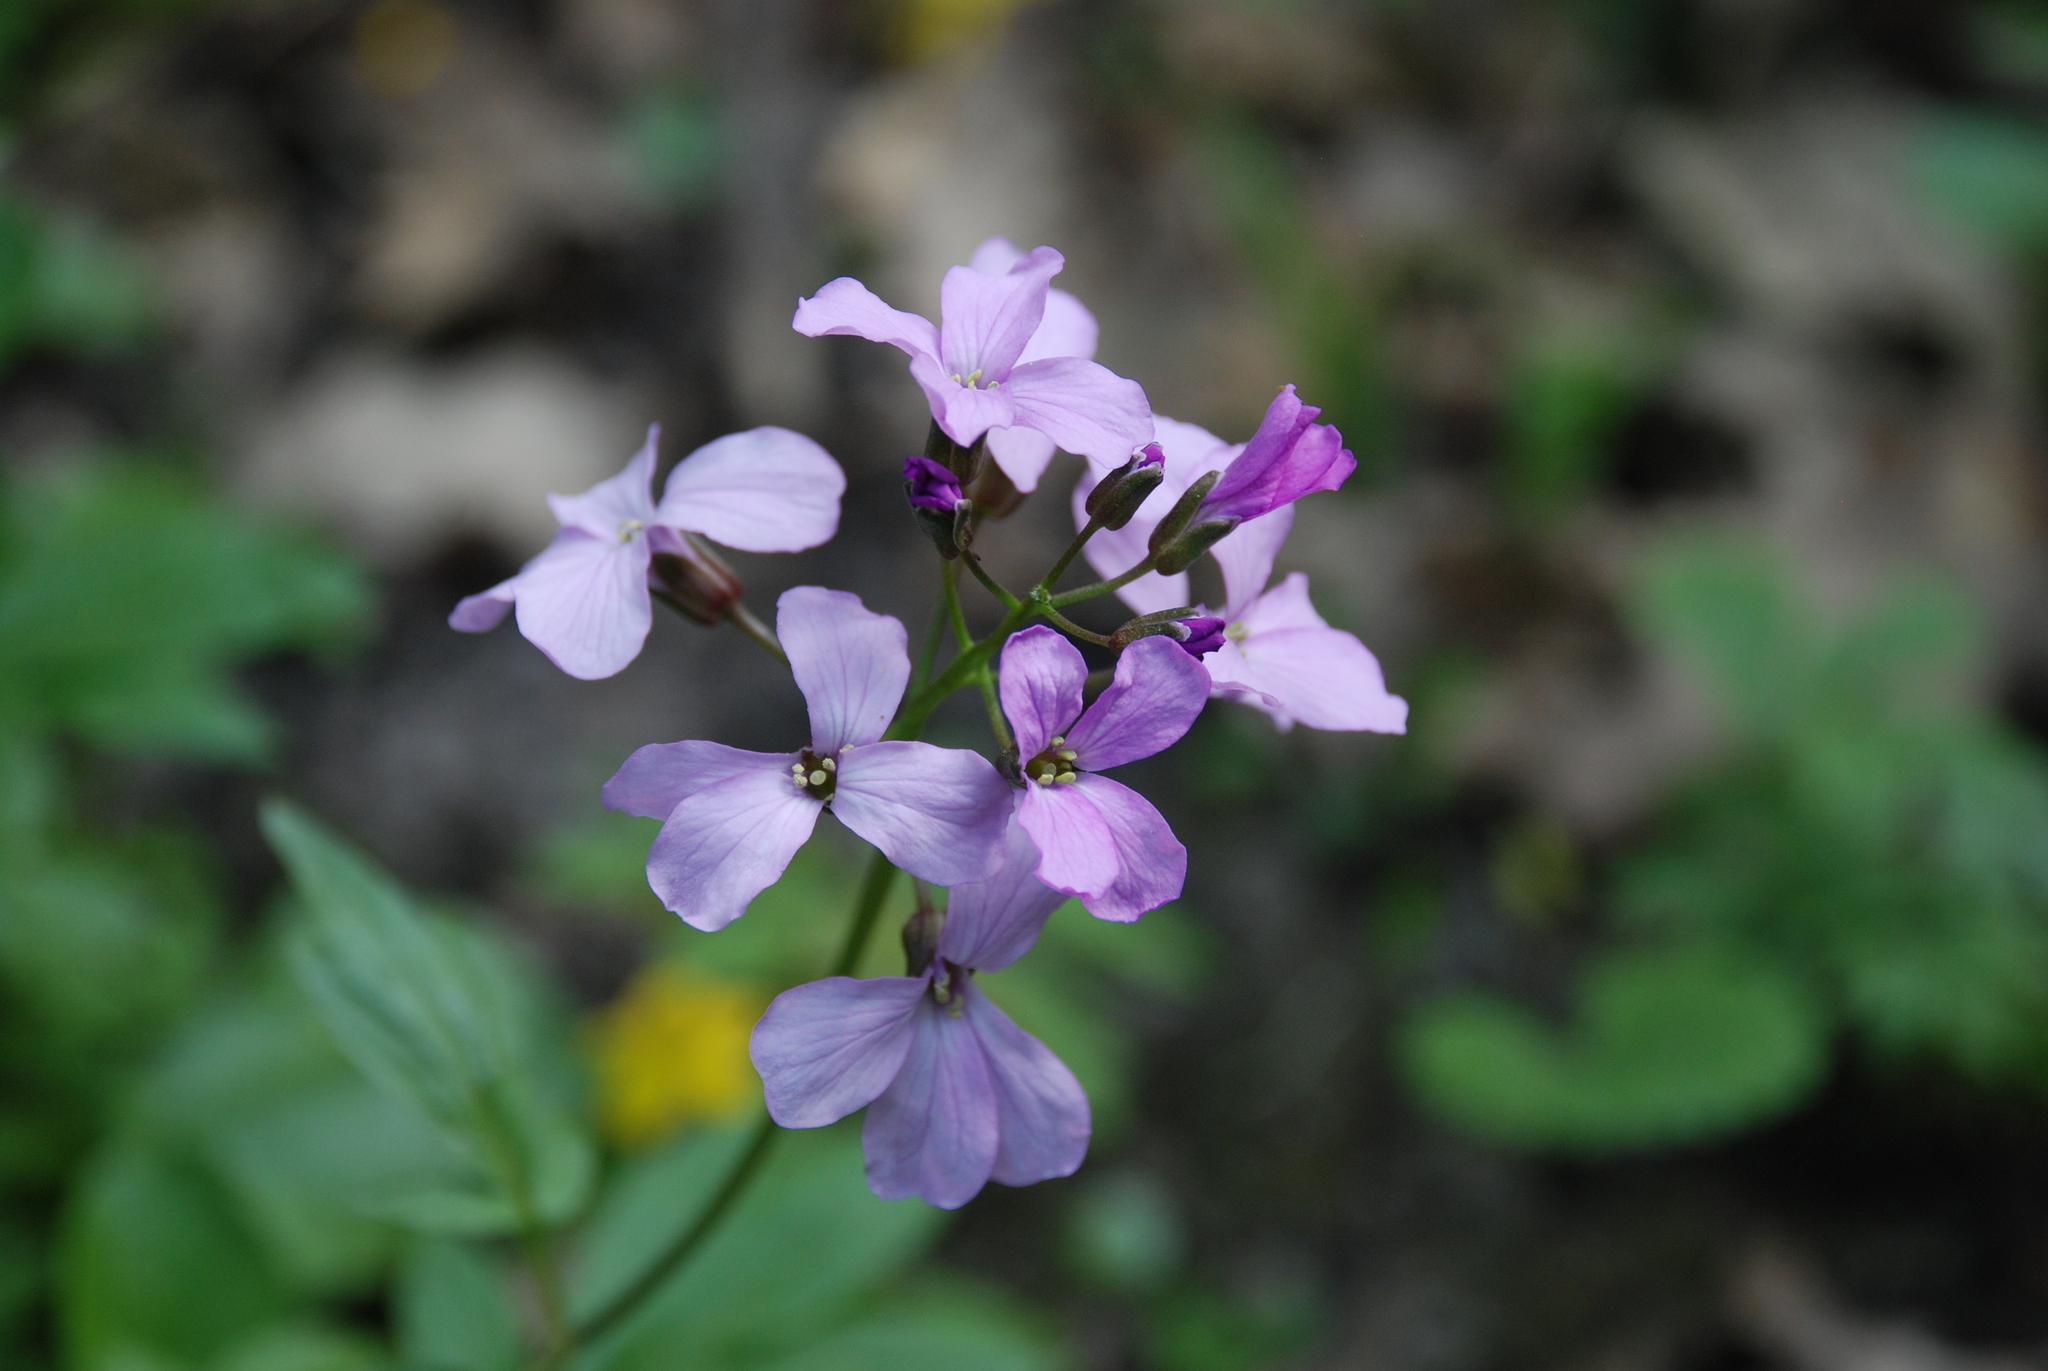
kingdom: Plantae
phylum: Tracheophyta
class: Magnoliopsida
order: Brassicales
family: Brassicaceae
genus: Cardamine
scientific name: Cardamine quinquefolia
